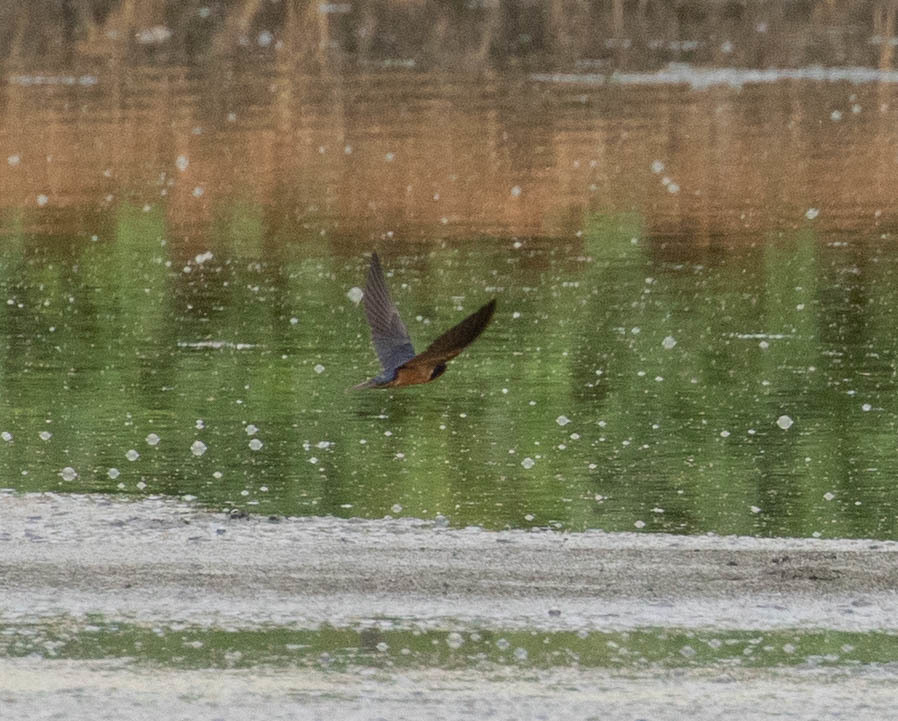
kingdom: Animalia
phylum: Chordata
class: Aves
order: Passeriformes
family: Hirundinidae
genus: Hirundo
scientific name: Hirundo rustica
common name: Barn swallow
